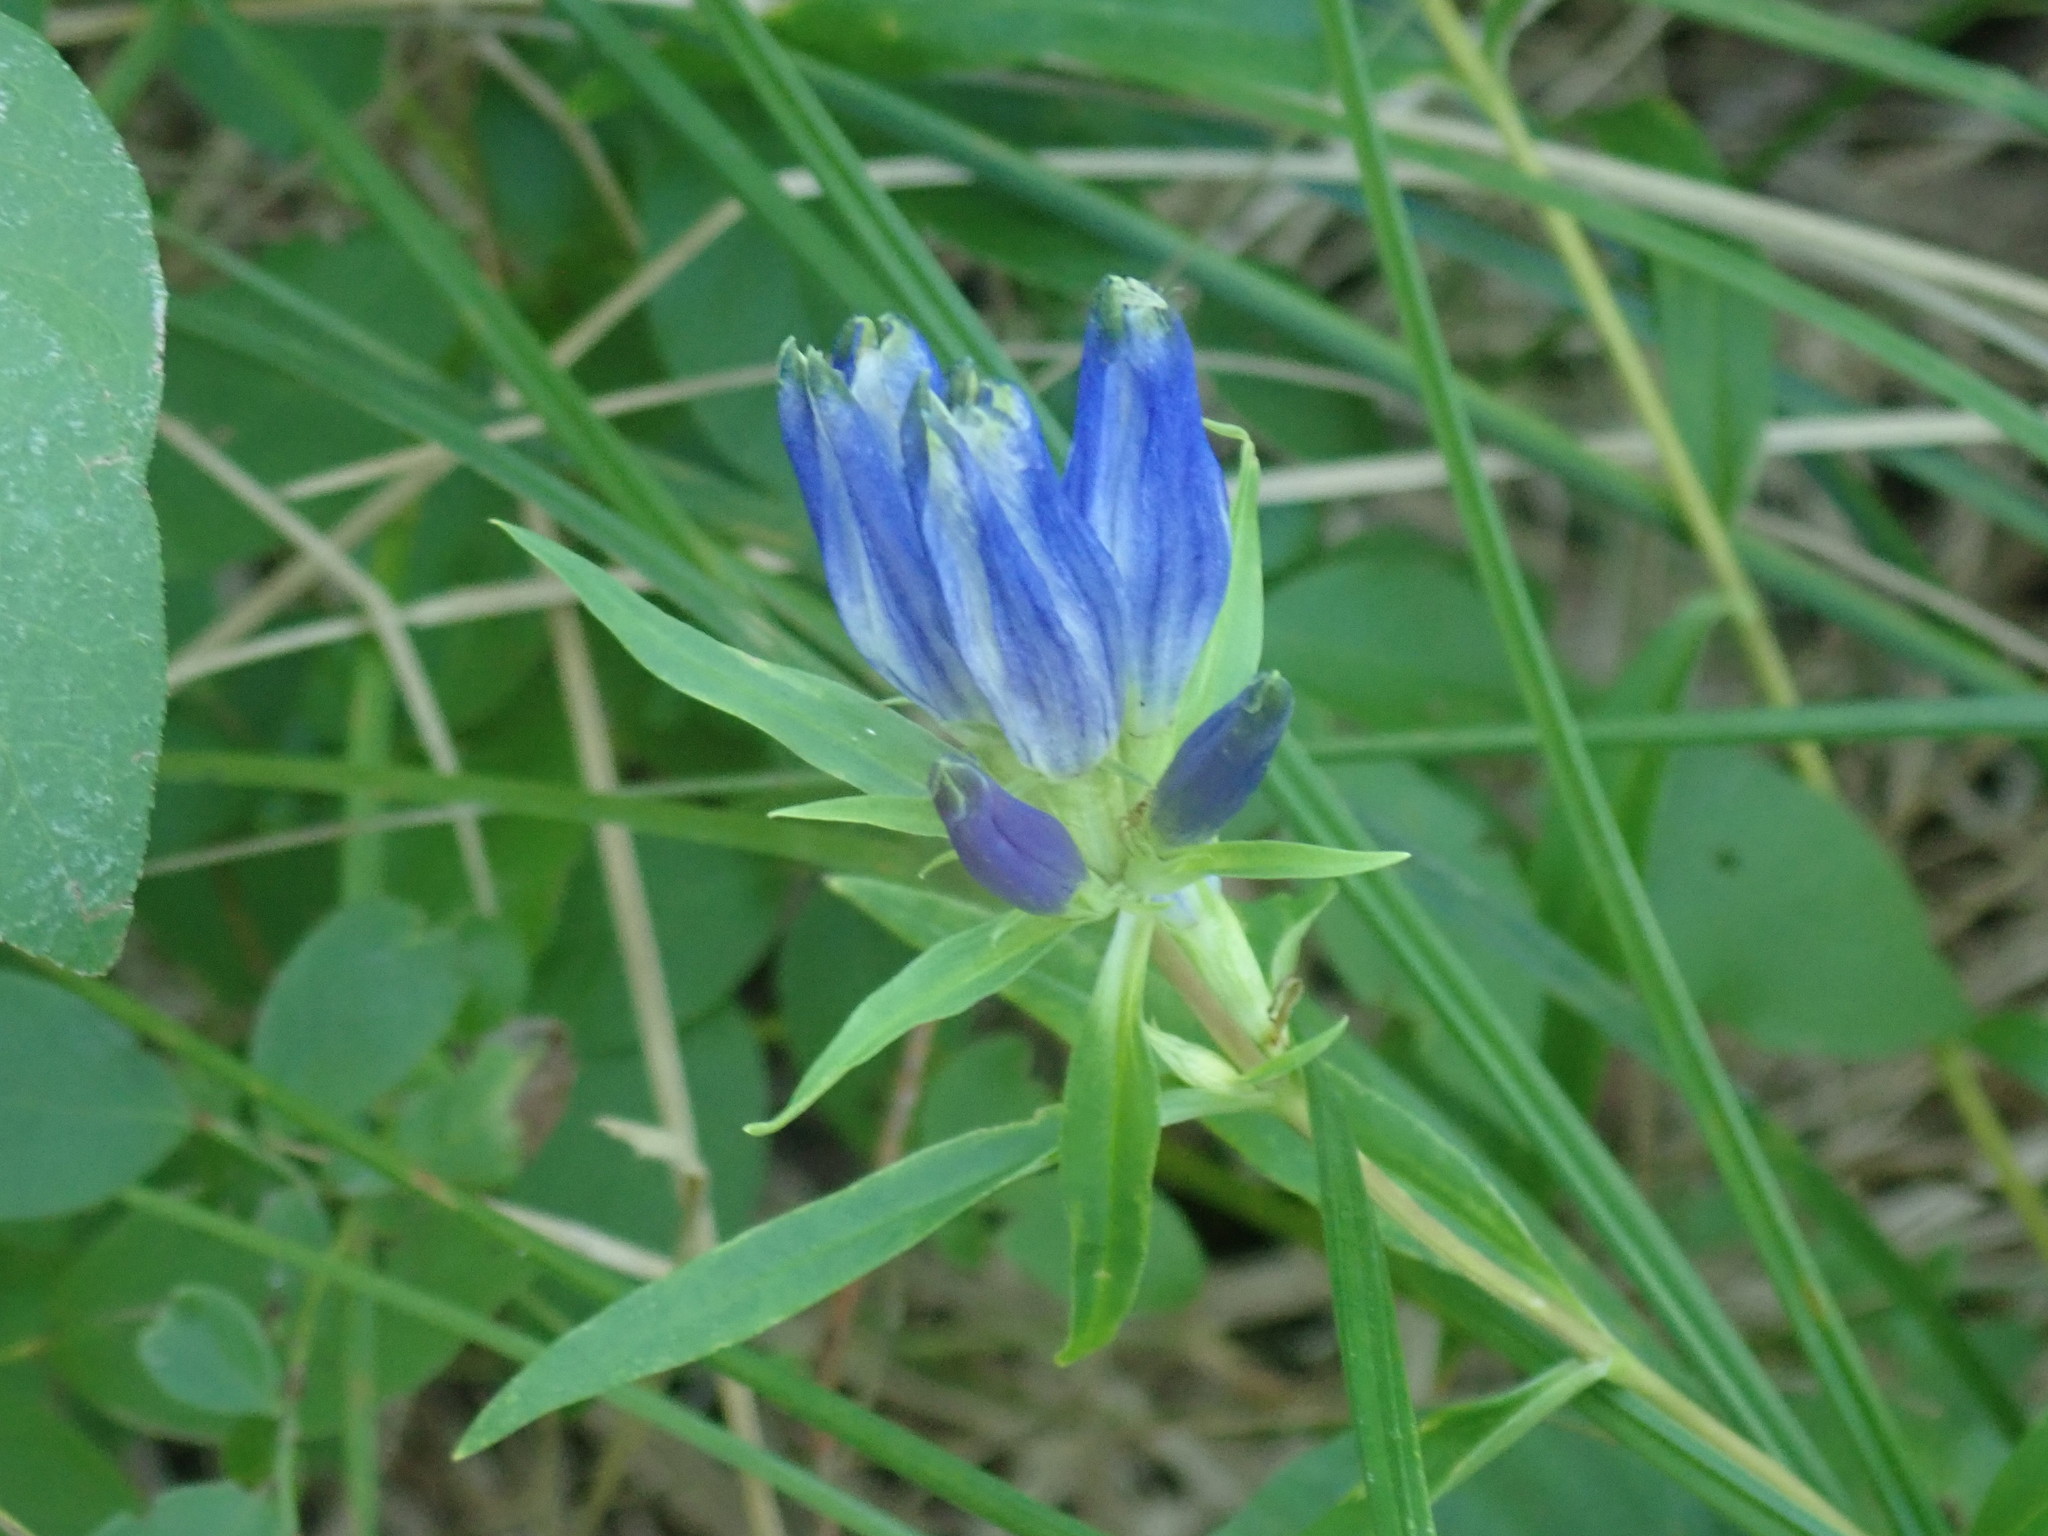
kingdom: Plantae
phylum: Tracheophyta
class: Magnoliopsida
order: Gentianales
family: Gentianaceae
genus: Gentiana
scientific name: Gentiana linearis
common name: Bastard gentian
